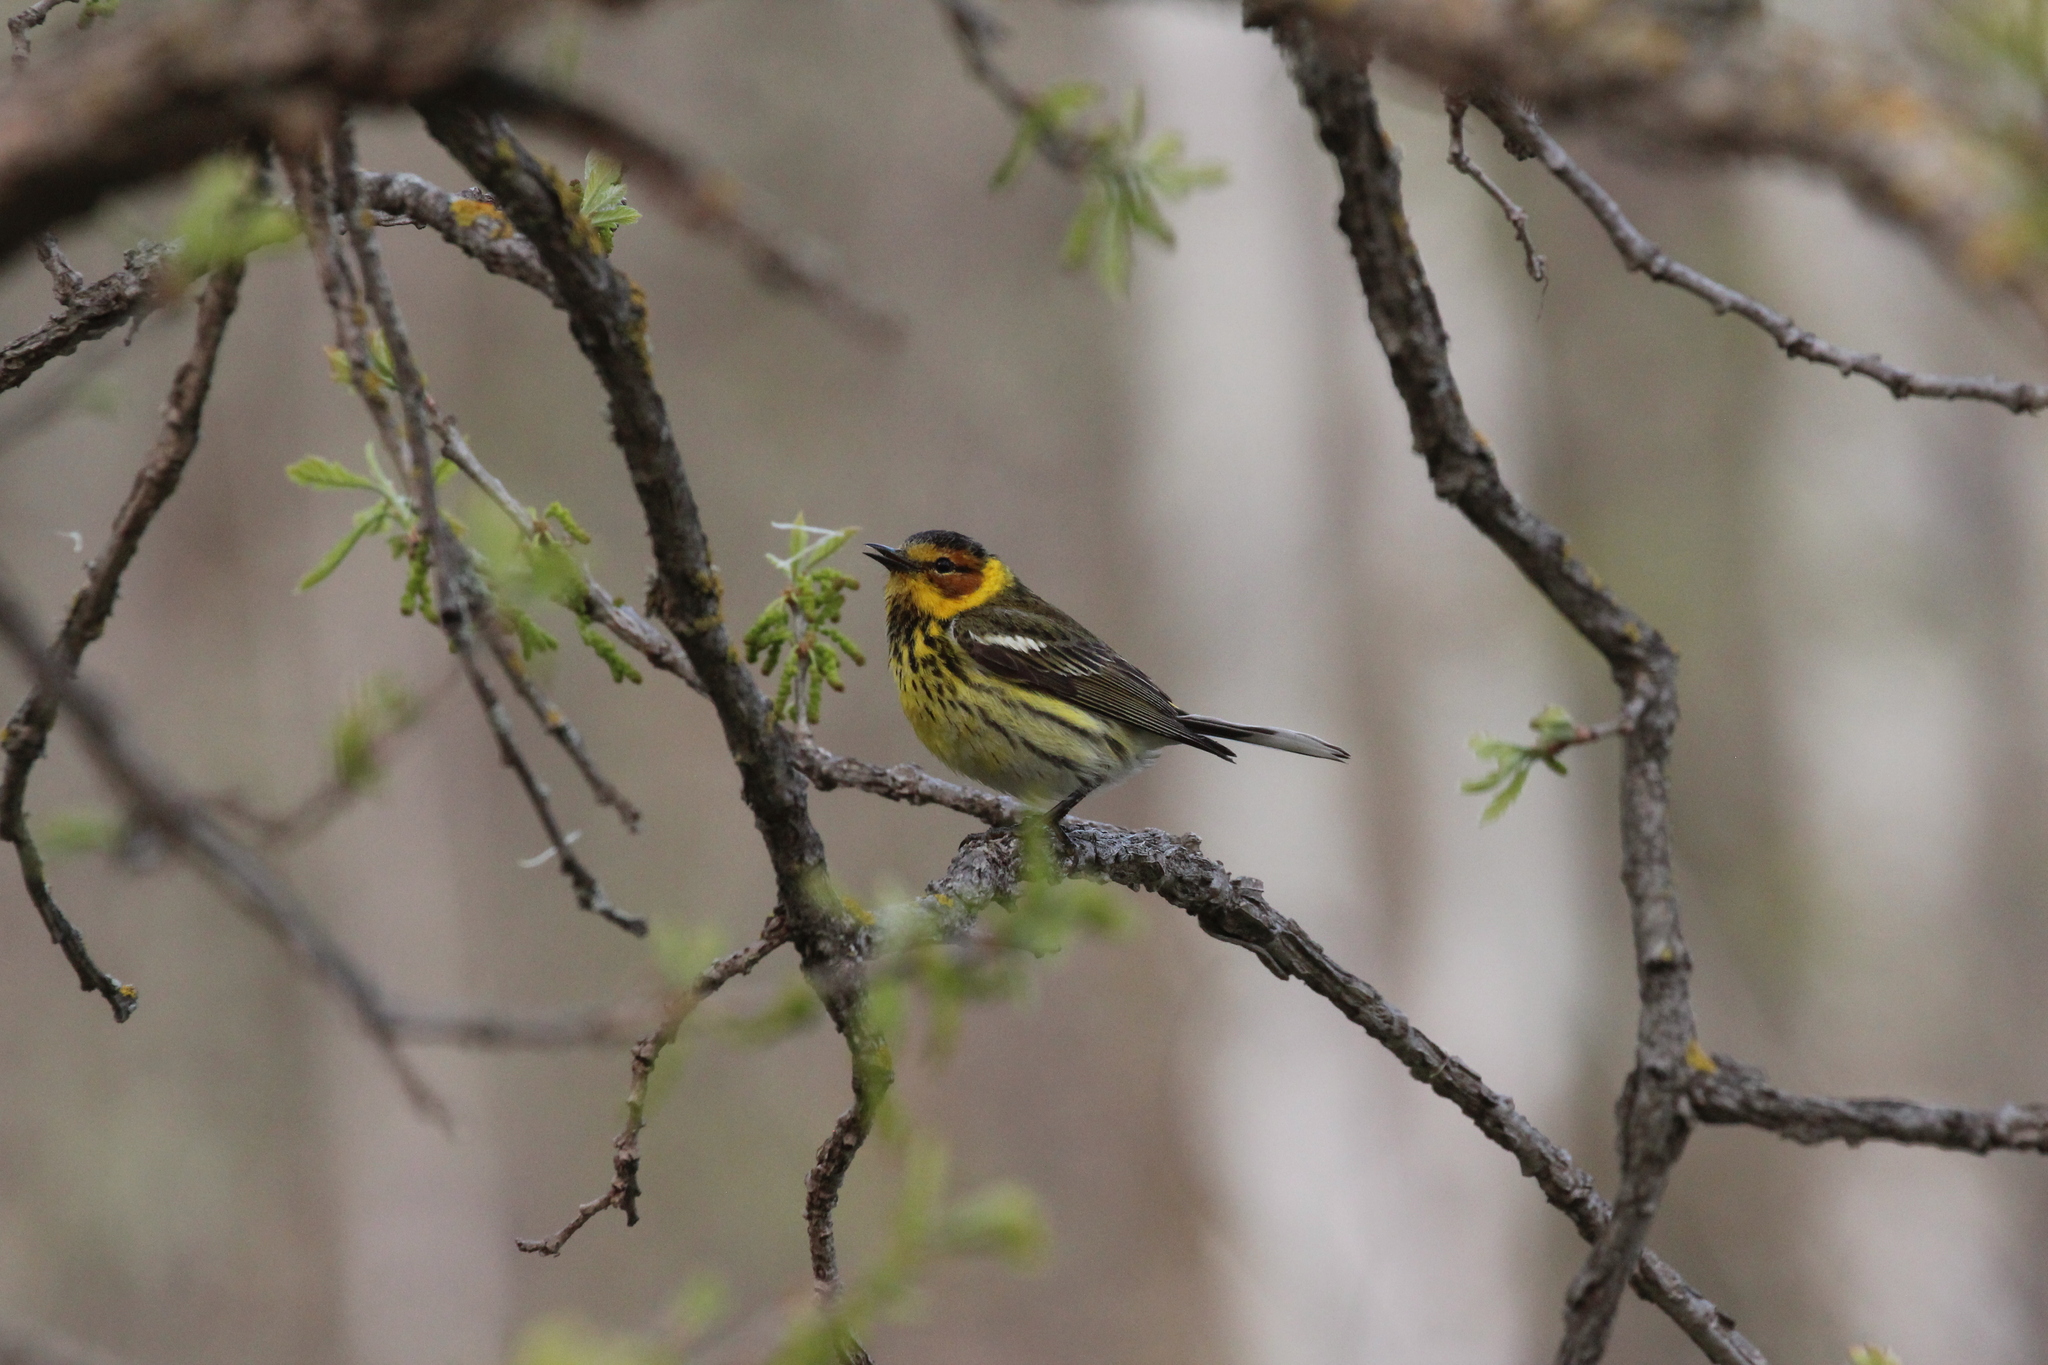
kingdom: Animalia
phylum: Chordata
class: Aves
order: Passeriformes
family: Parulidae
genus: Setophaga
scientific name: Setophaga tigrina
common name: Cape may warbler
